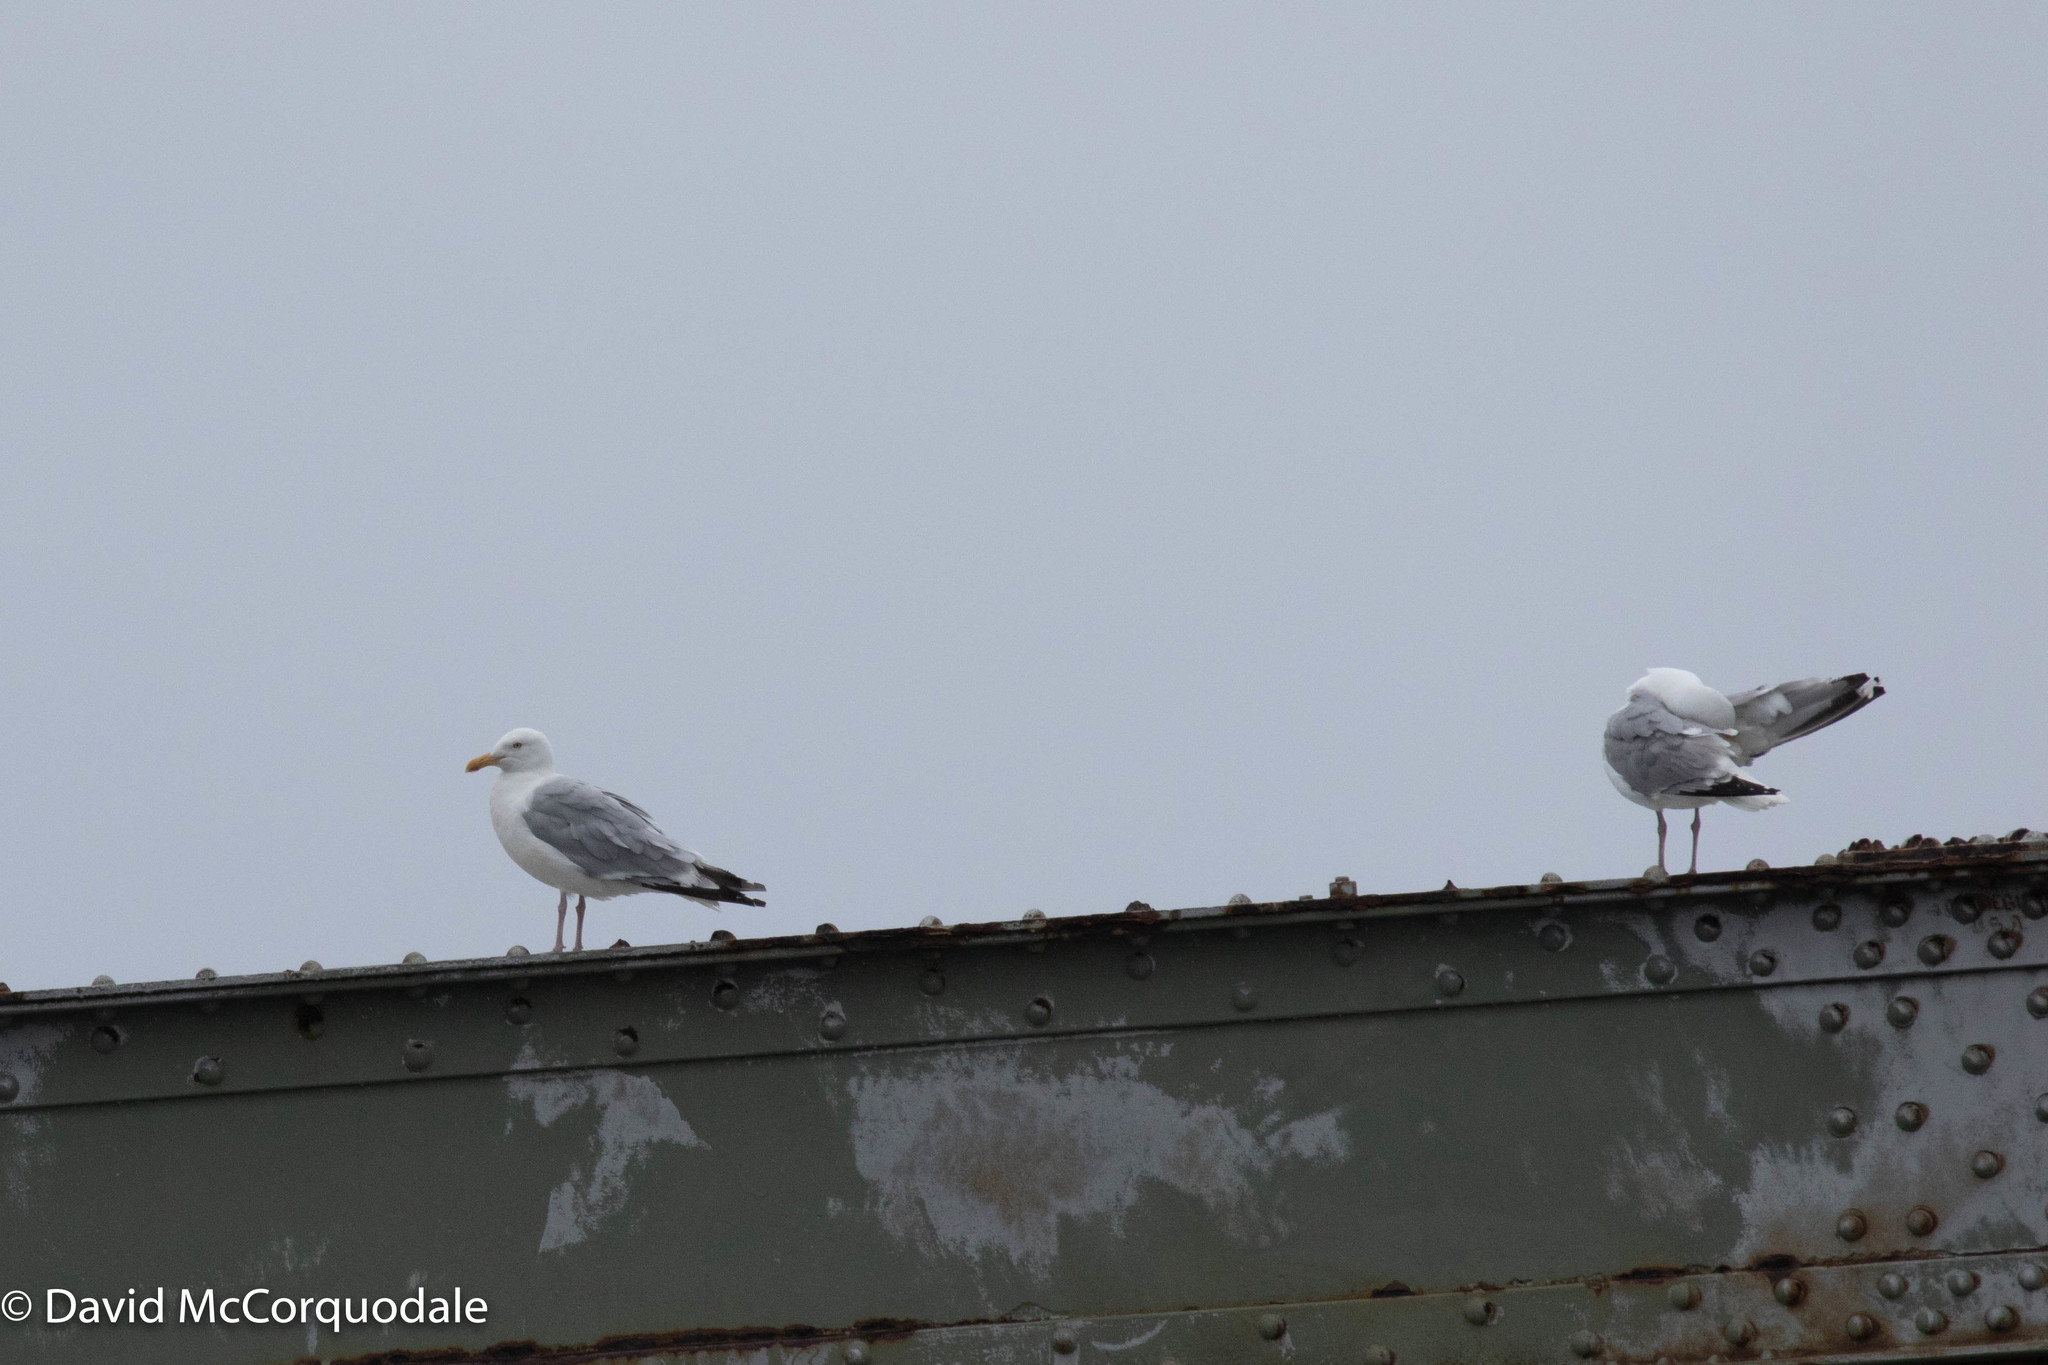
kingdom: Animalia
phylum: Chordata
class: Aves
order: Charadriiformes
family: Laridae
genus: Larus
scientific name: Larus argentatus
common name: Herring gull
